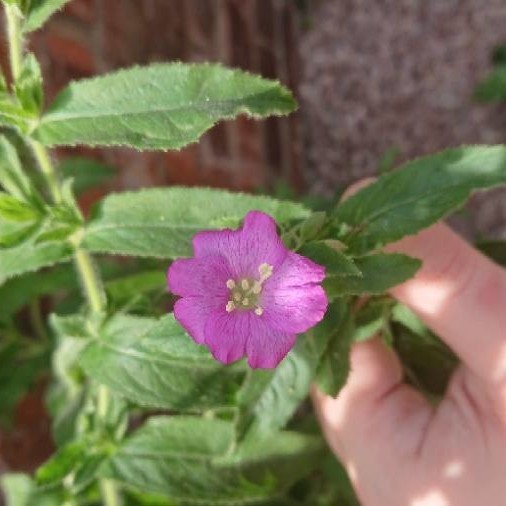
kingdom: Plantae
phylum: Tracheophyta
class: Magnoliopsida
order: Myrtales
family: Onagraceae
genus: Epilobium
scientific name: Epilobium hirsutum
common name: Great willowherb
